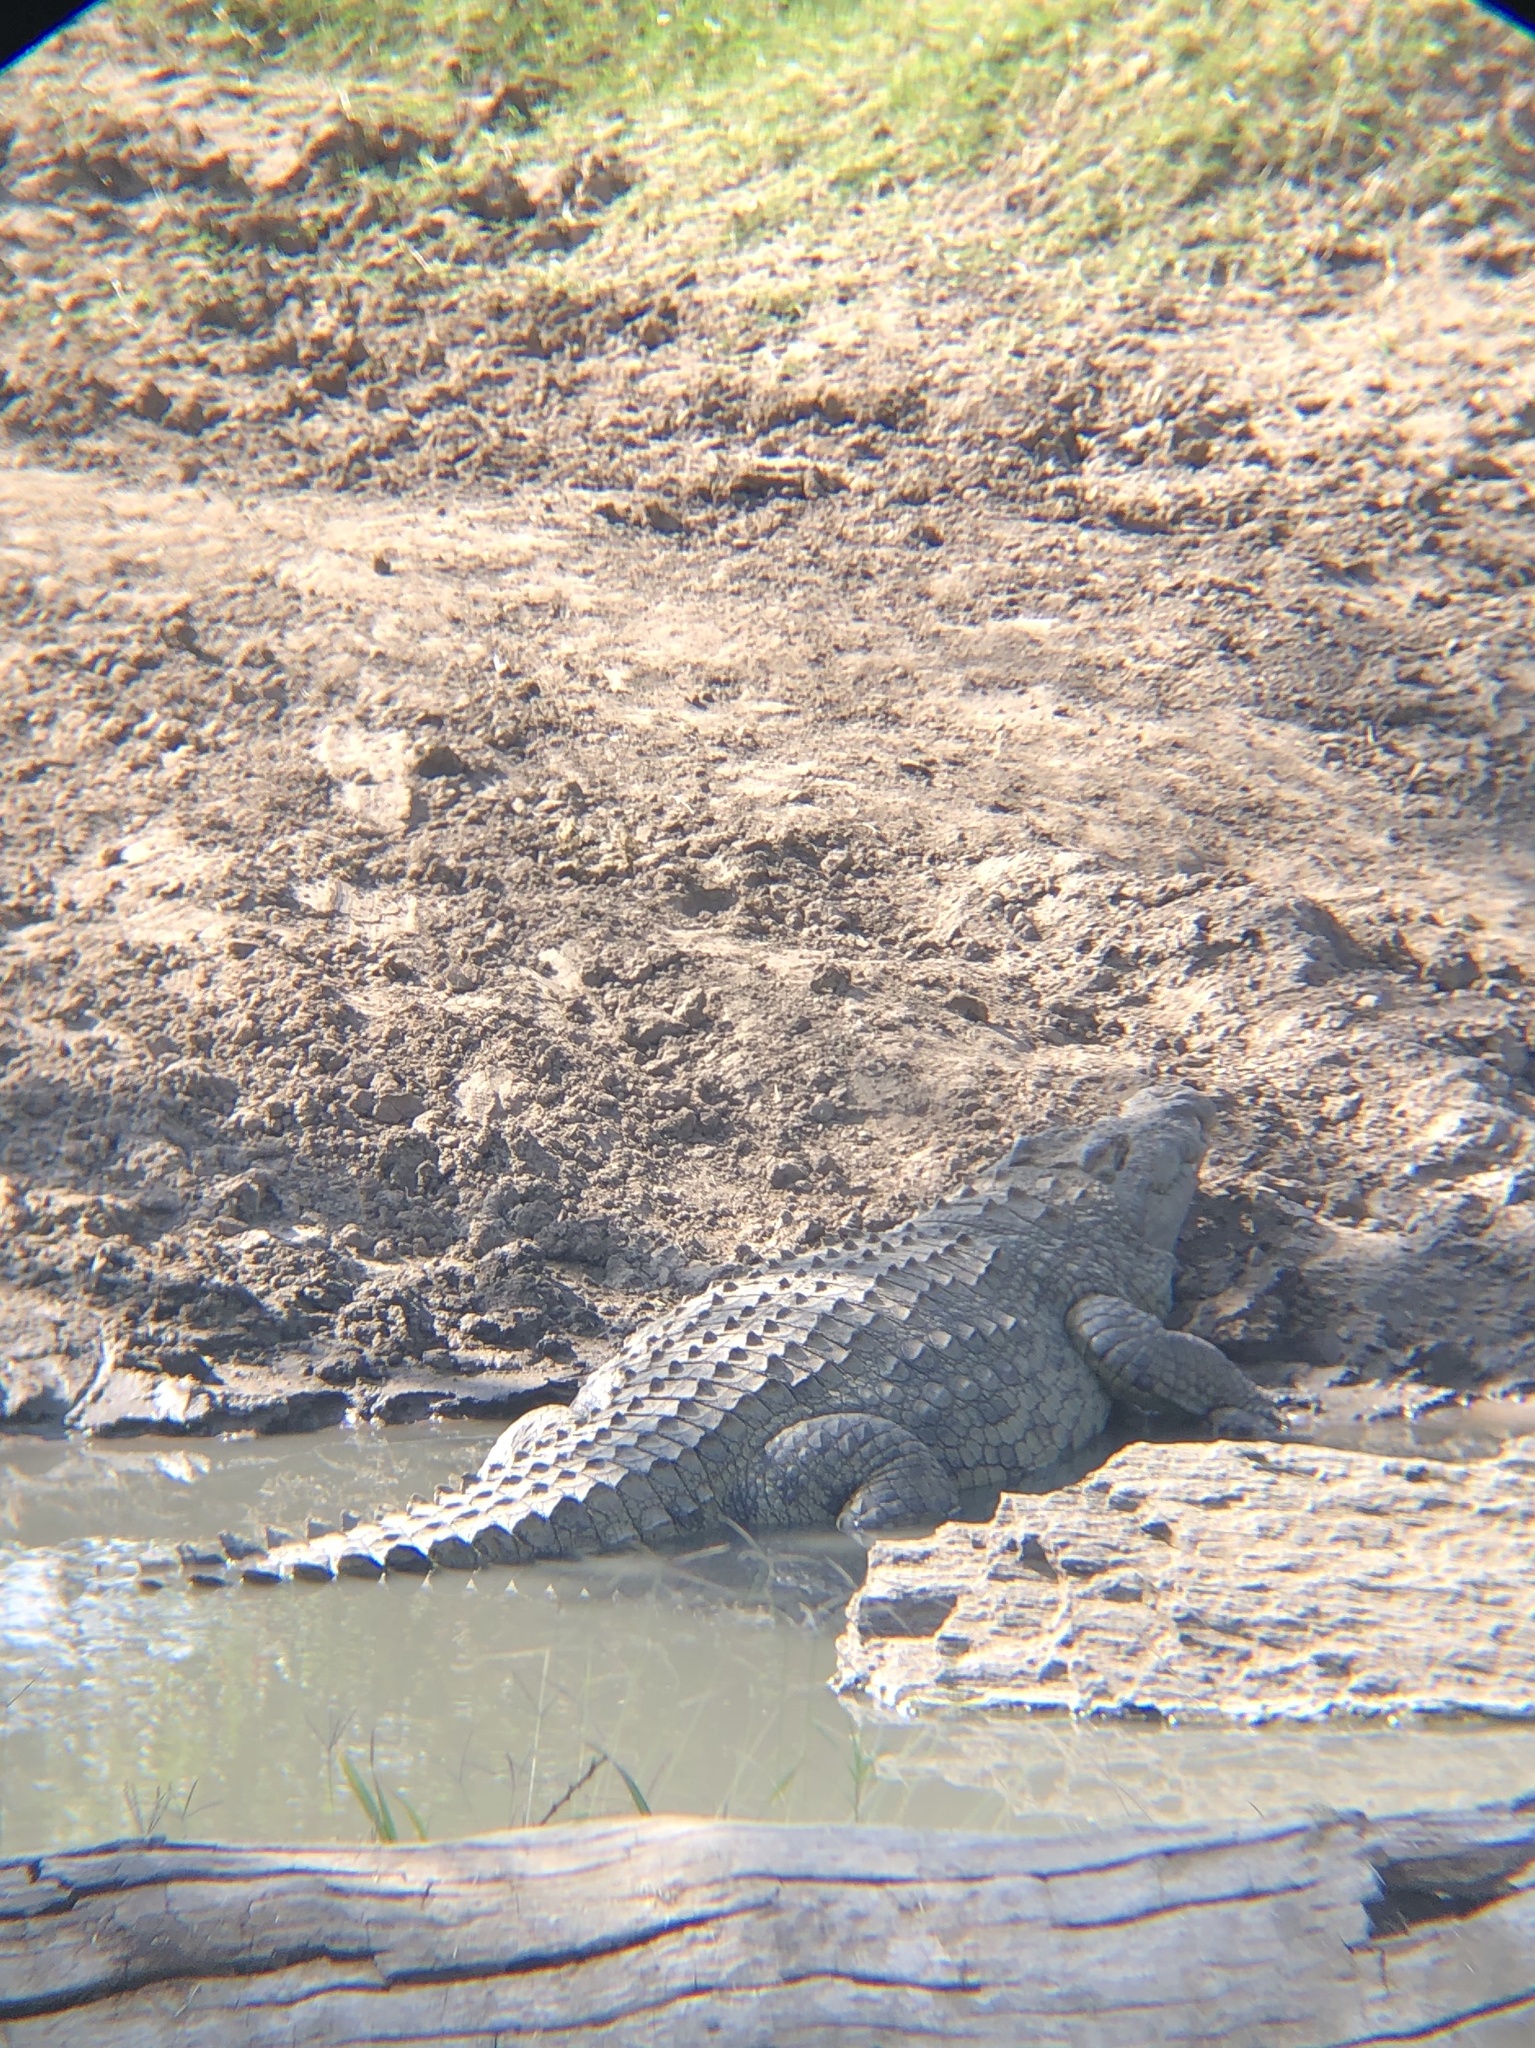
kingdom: Animalia
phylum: Chordata
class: Crocodylia
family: Crocodylidae
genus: Crocodylus
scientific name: Crocodylus niloticus
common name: Nile crocodile
